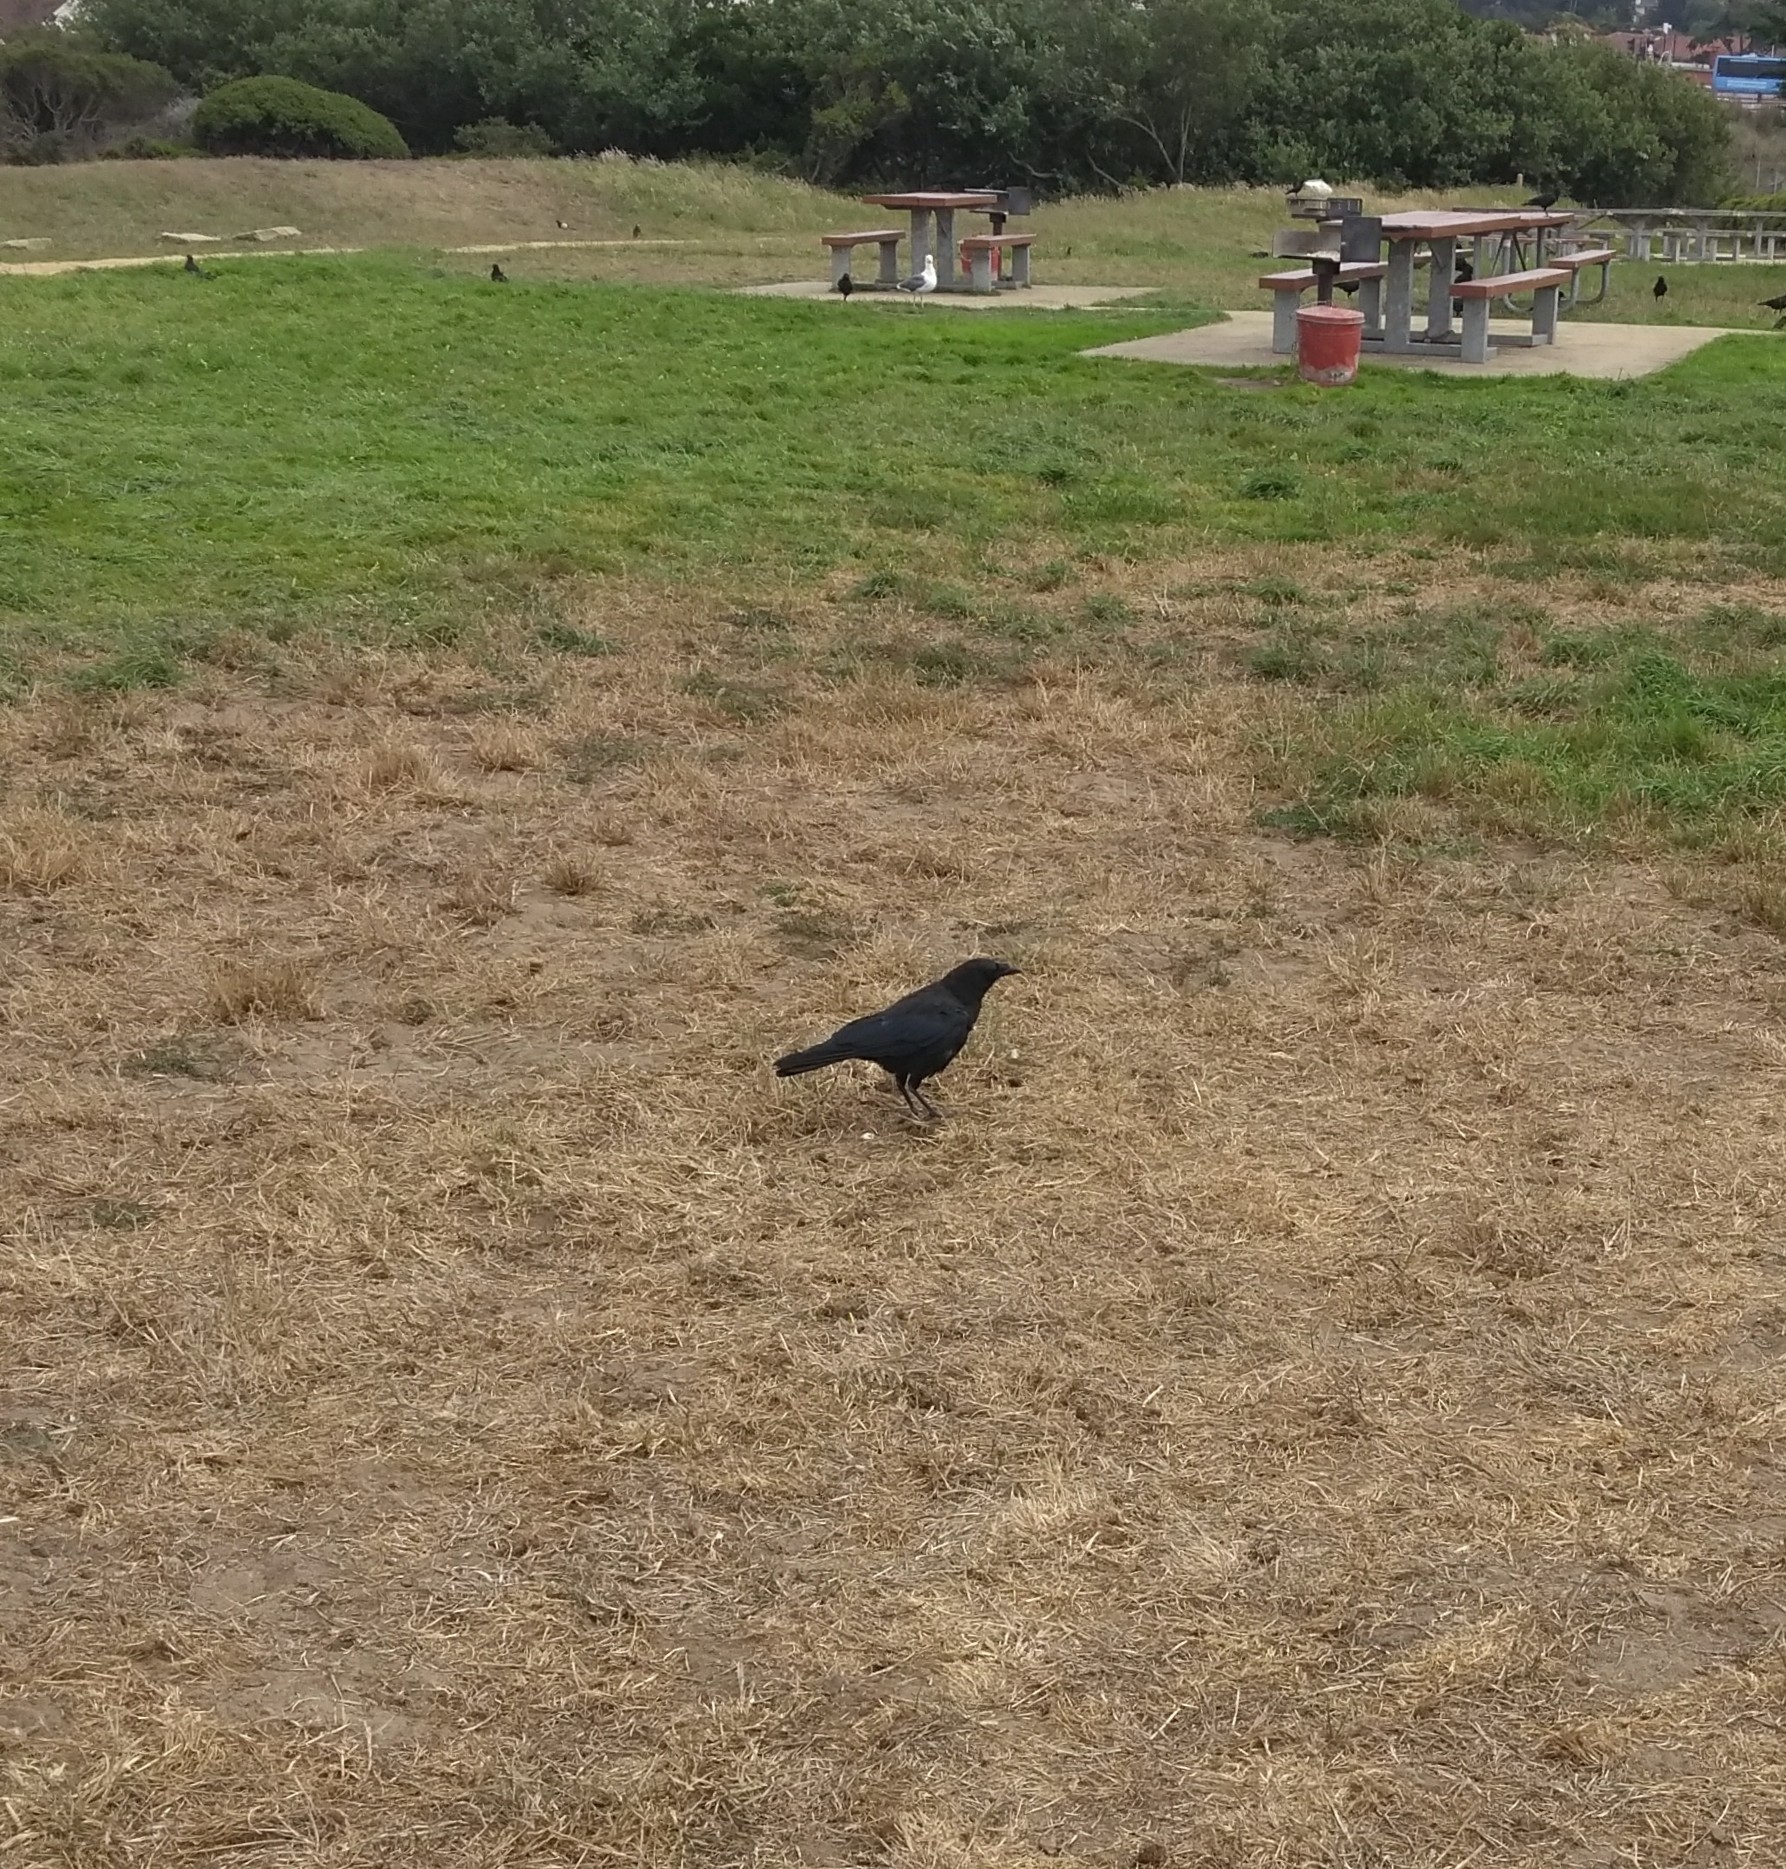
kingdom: Animalia
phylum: Chordata
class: Aves
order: Passeriformes
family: Corvidae
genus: Corvus
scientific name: Corvus brachyrhynchos
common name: American crow
